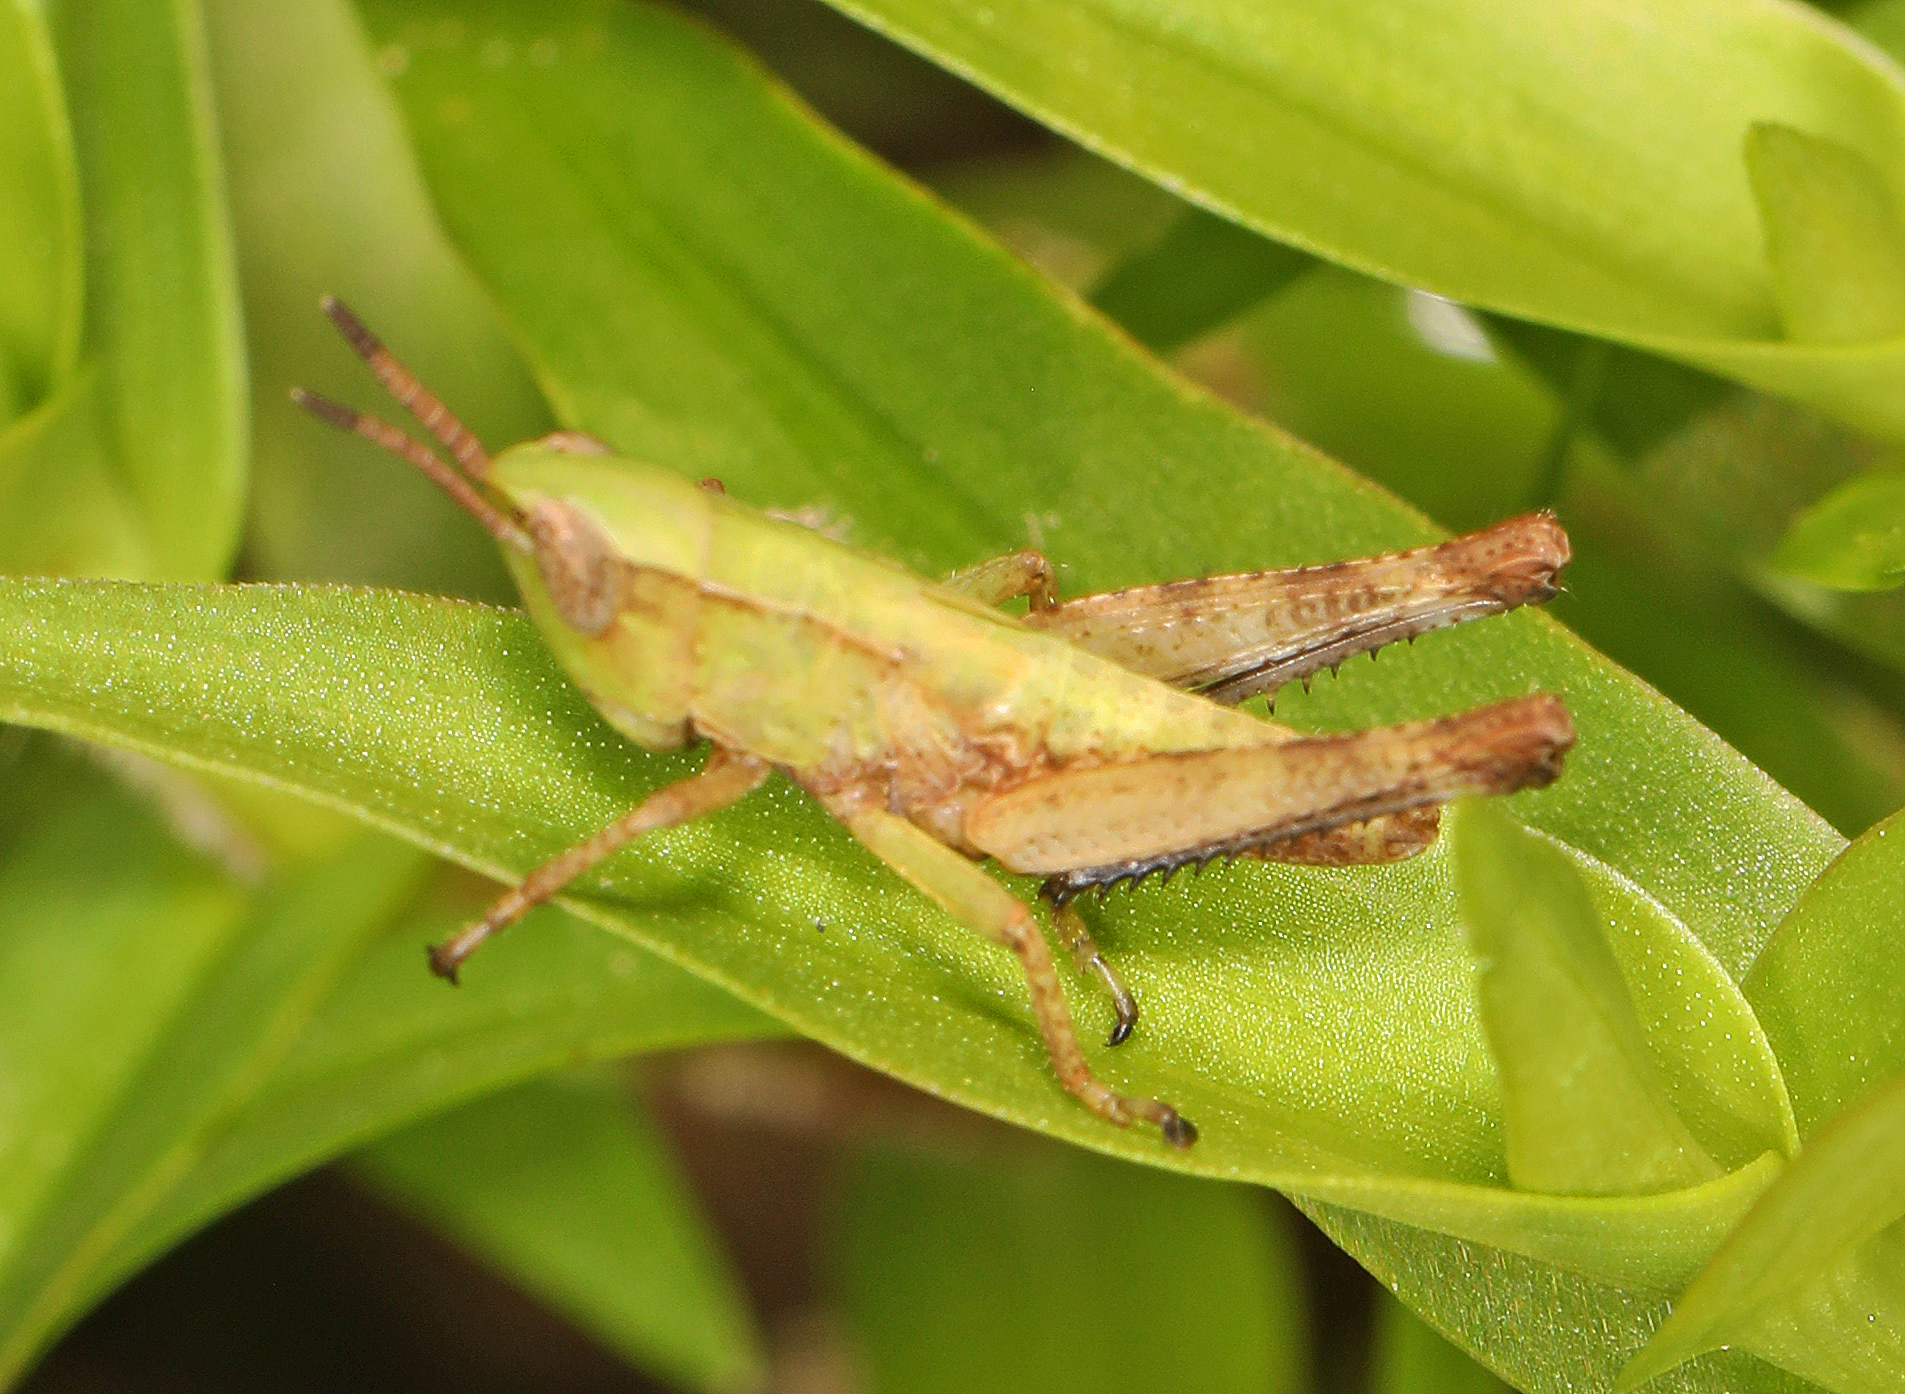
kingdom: Animalia
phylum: Arthropoda
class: Insecta
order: Orthoptera
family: Acrididae
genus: Dichromorpha
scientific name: Dichromorpha viridis
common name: Short-winged green grasshopper
